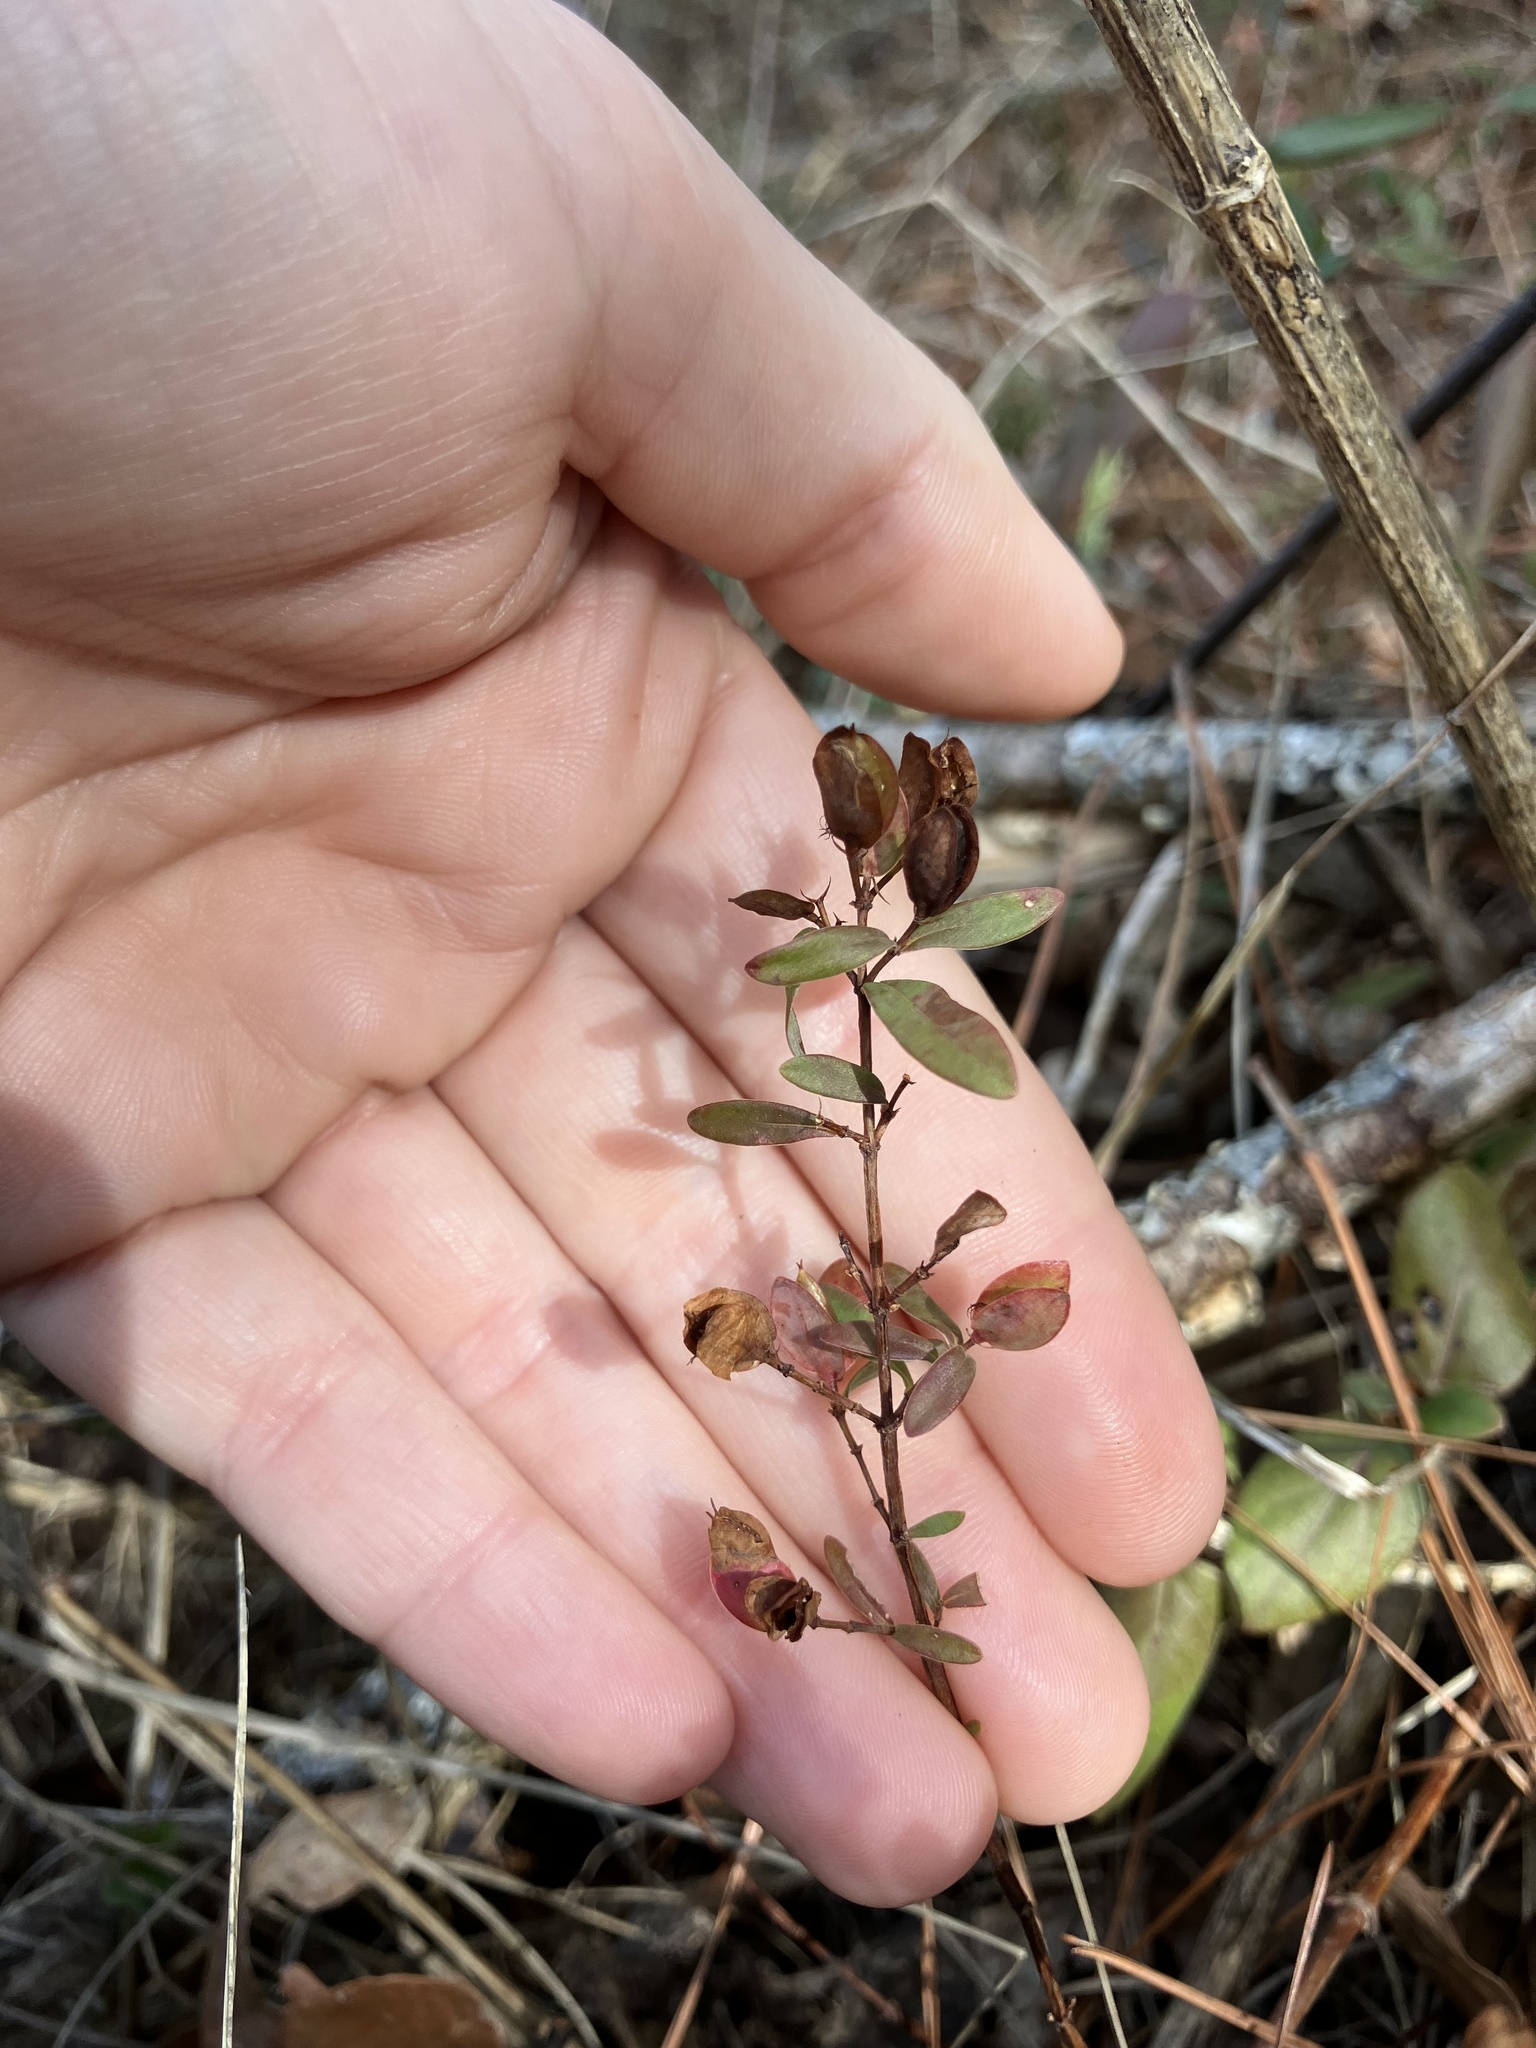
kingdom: Plantae
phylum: Tracheophyta
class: Magnoliopsida
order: Malpighiales
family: Hypericaceae
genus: Hypericum
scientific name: Hypericum hypericoides
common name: St. andrew's cross
